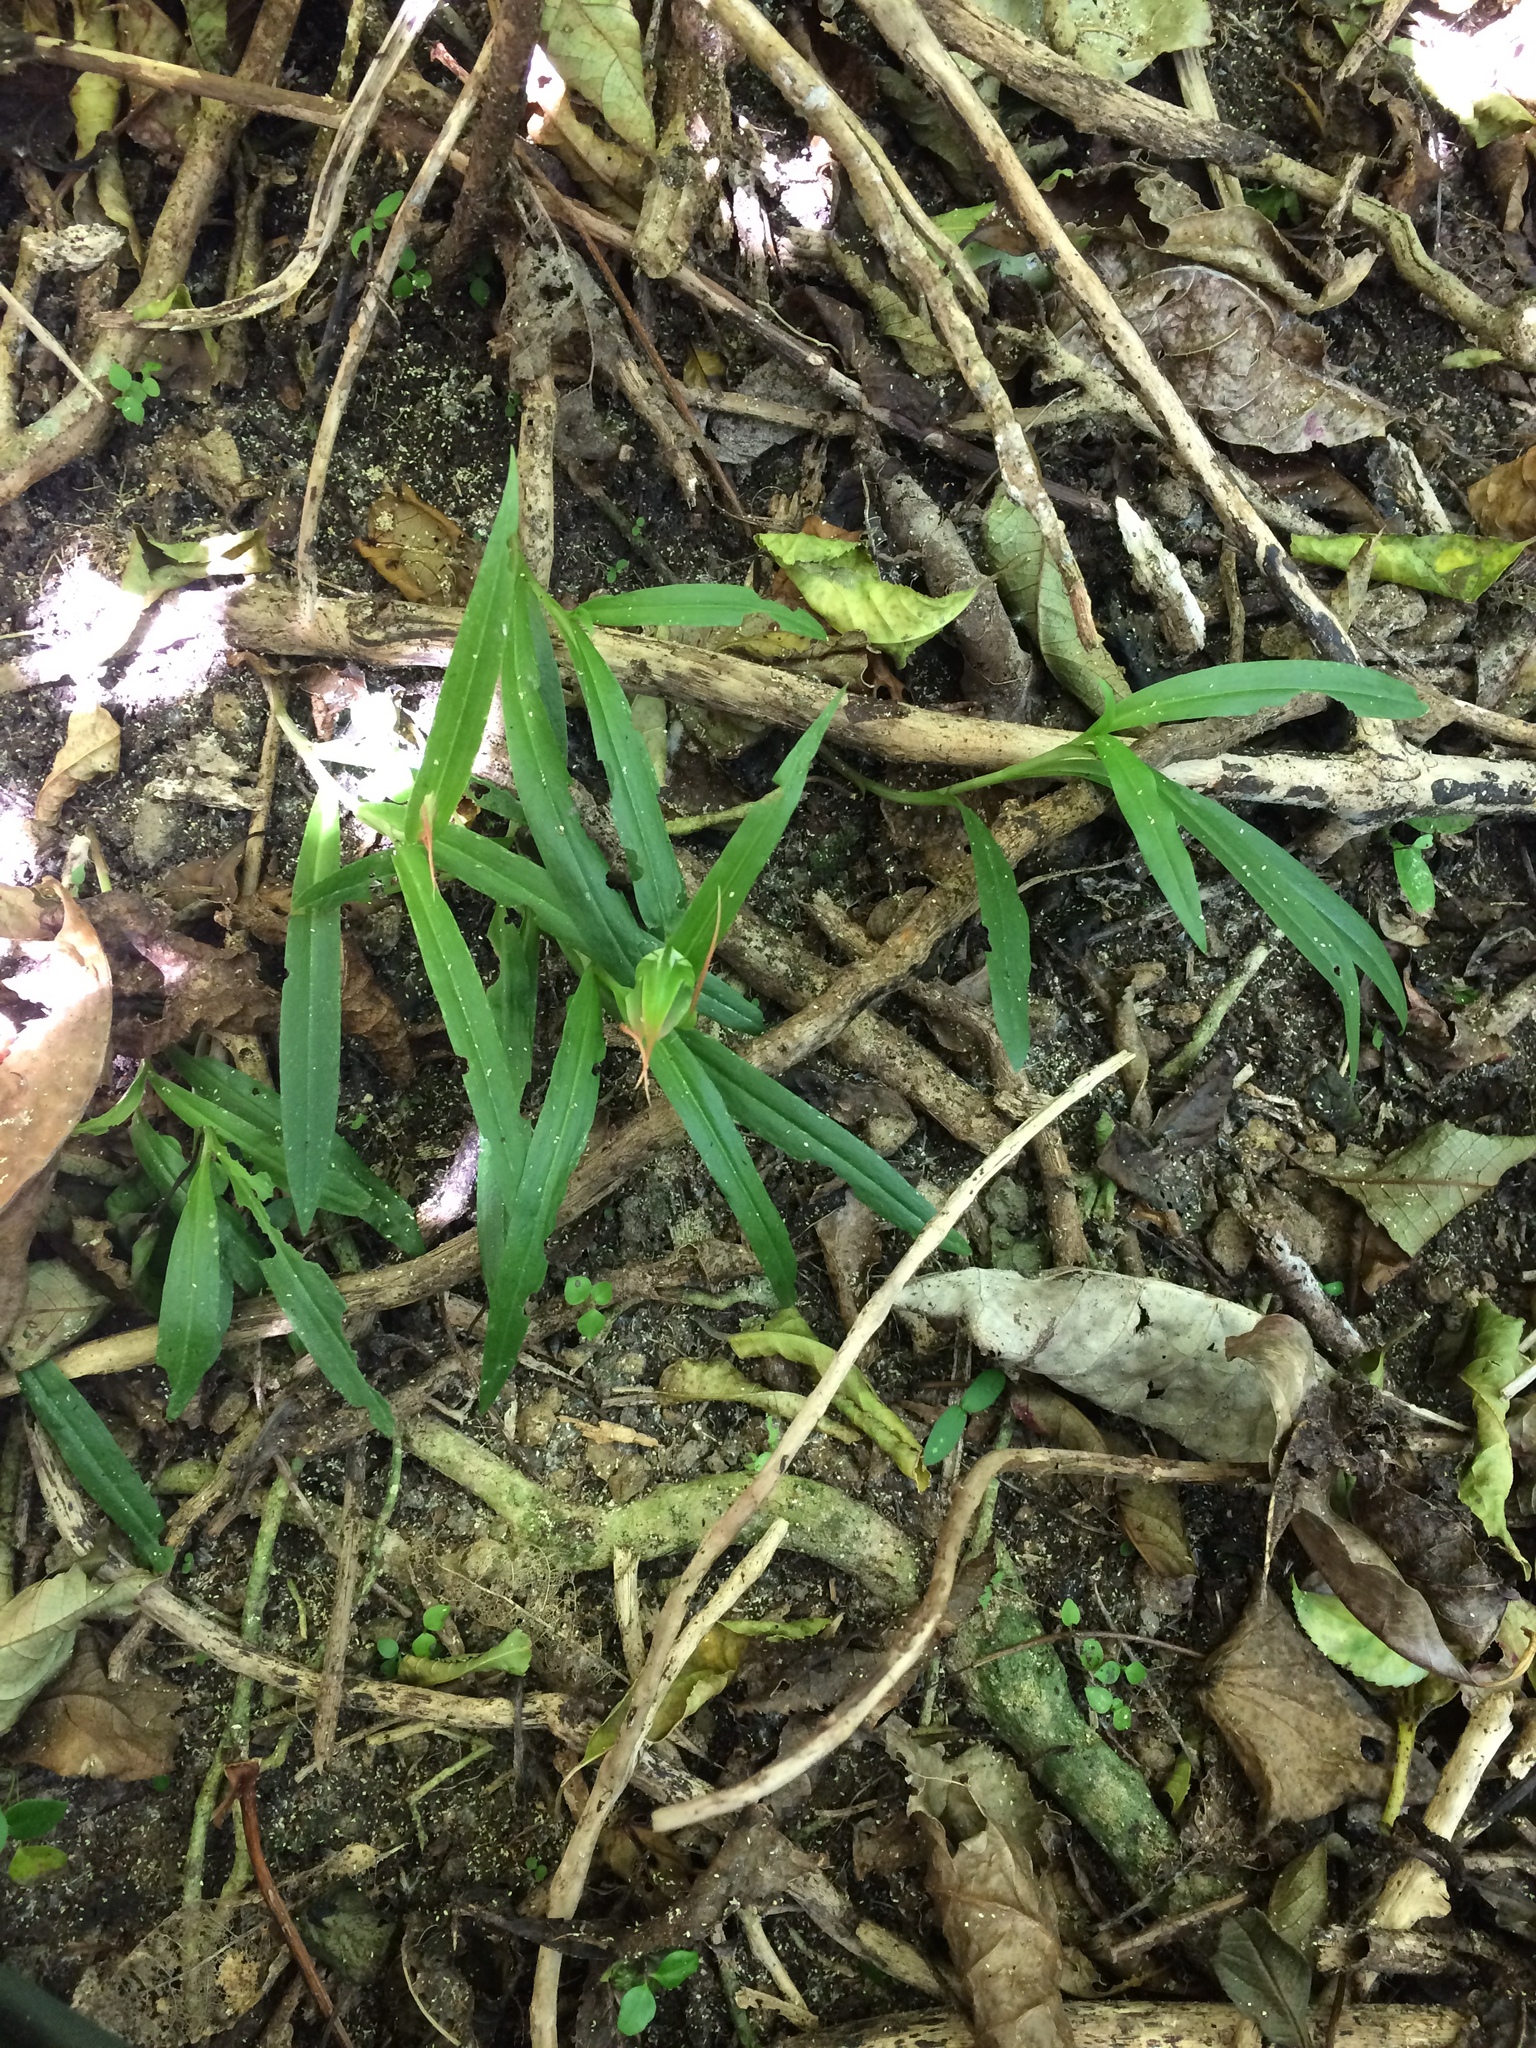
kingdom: Plantae
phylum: Tracheophyta
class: Liliopsida
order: Asparagales
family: Orchidaceae
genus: Pterostylis
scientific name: Pterostylis banksii
